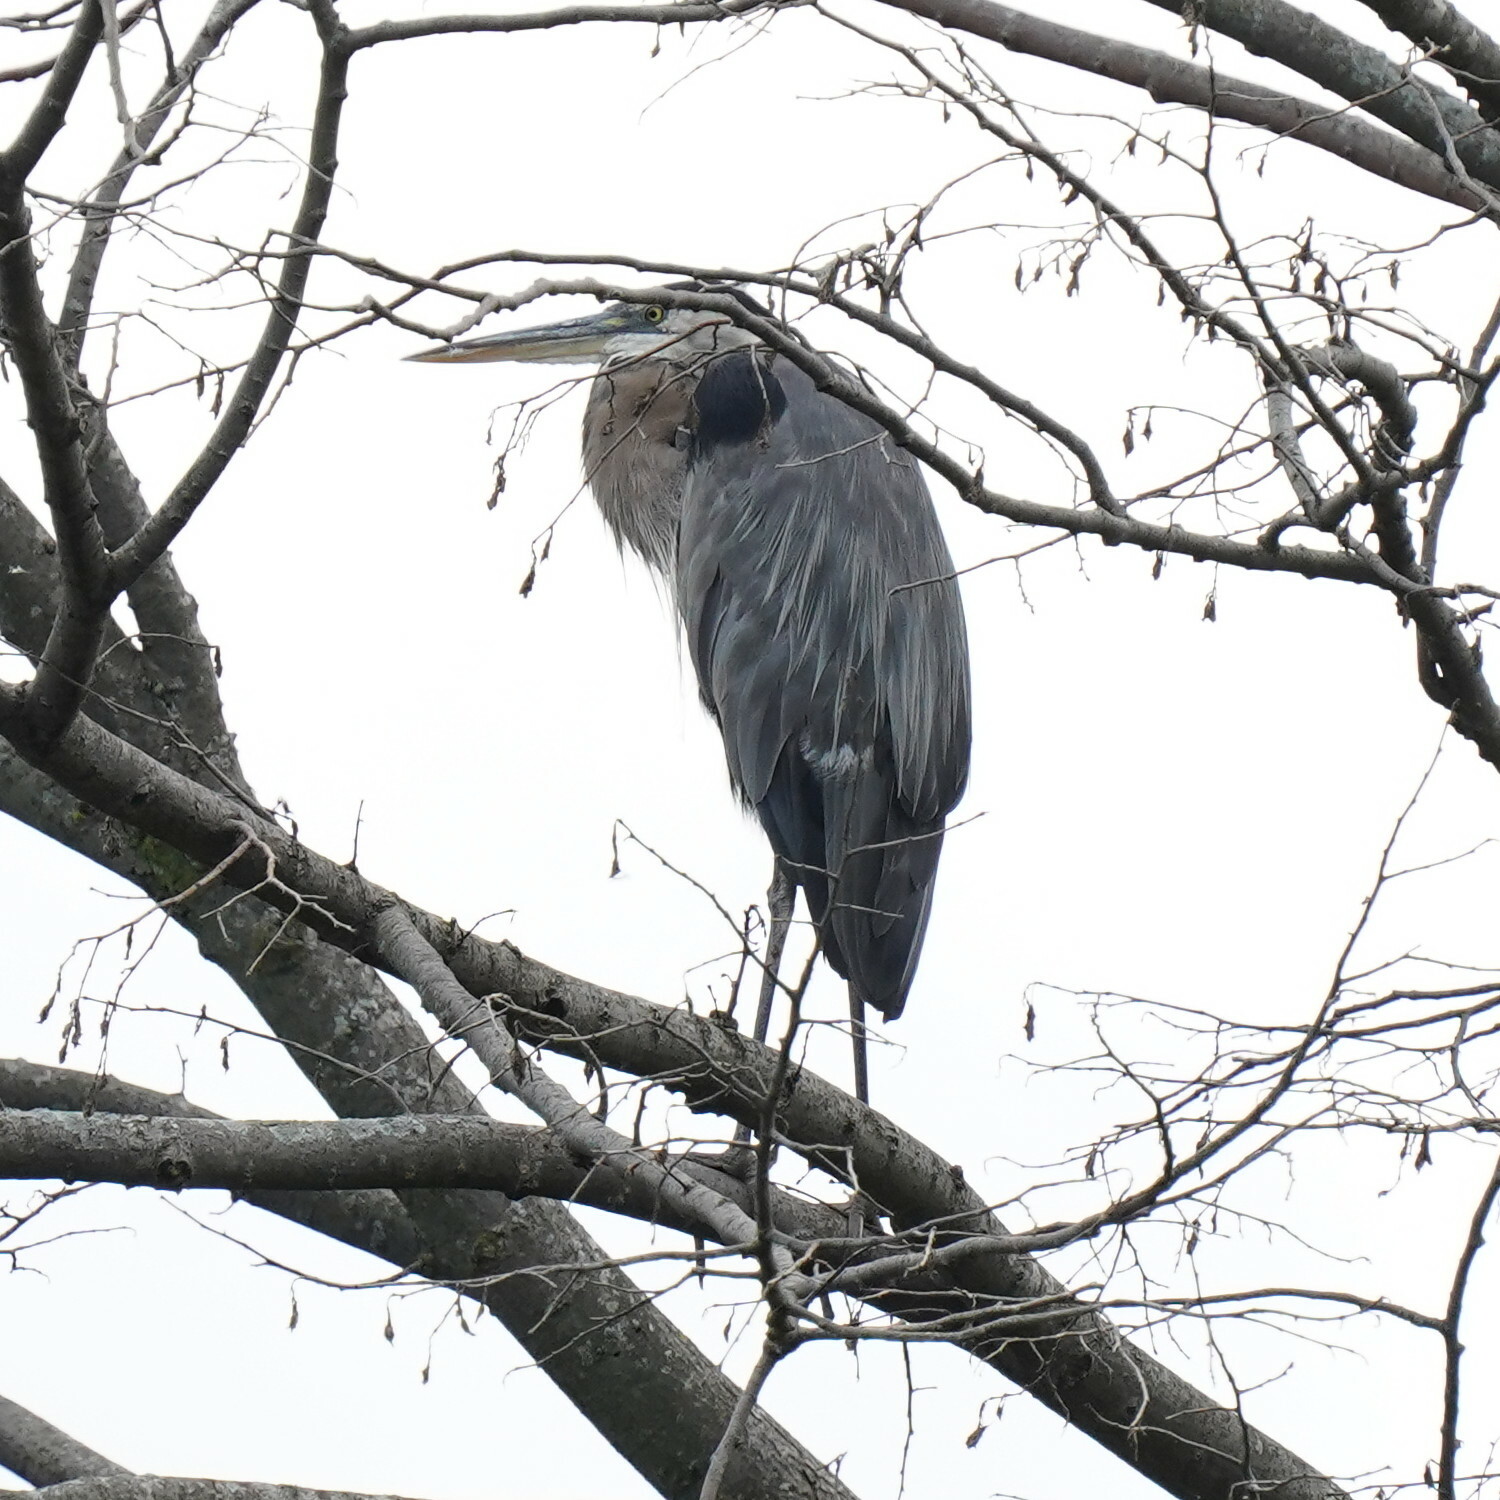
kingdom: Animalia
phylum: Chordata
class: Aves
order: Pelecaniformes
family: Ardeidae
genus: Ardea
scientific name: Ardea herodias
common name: Great blue heron
